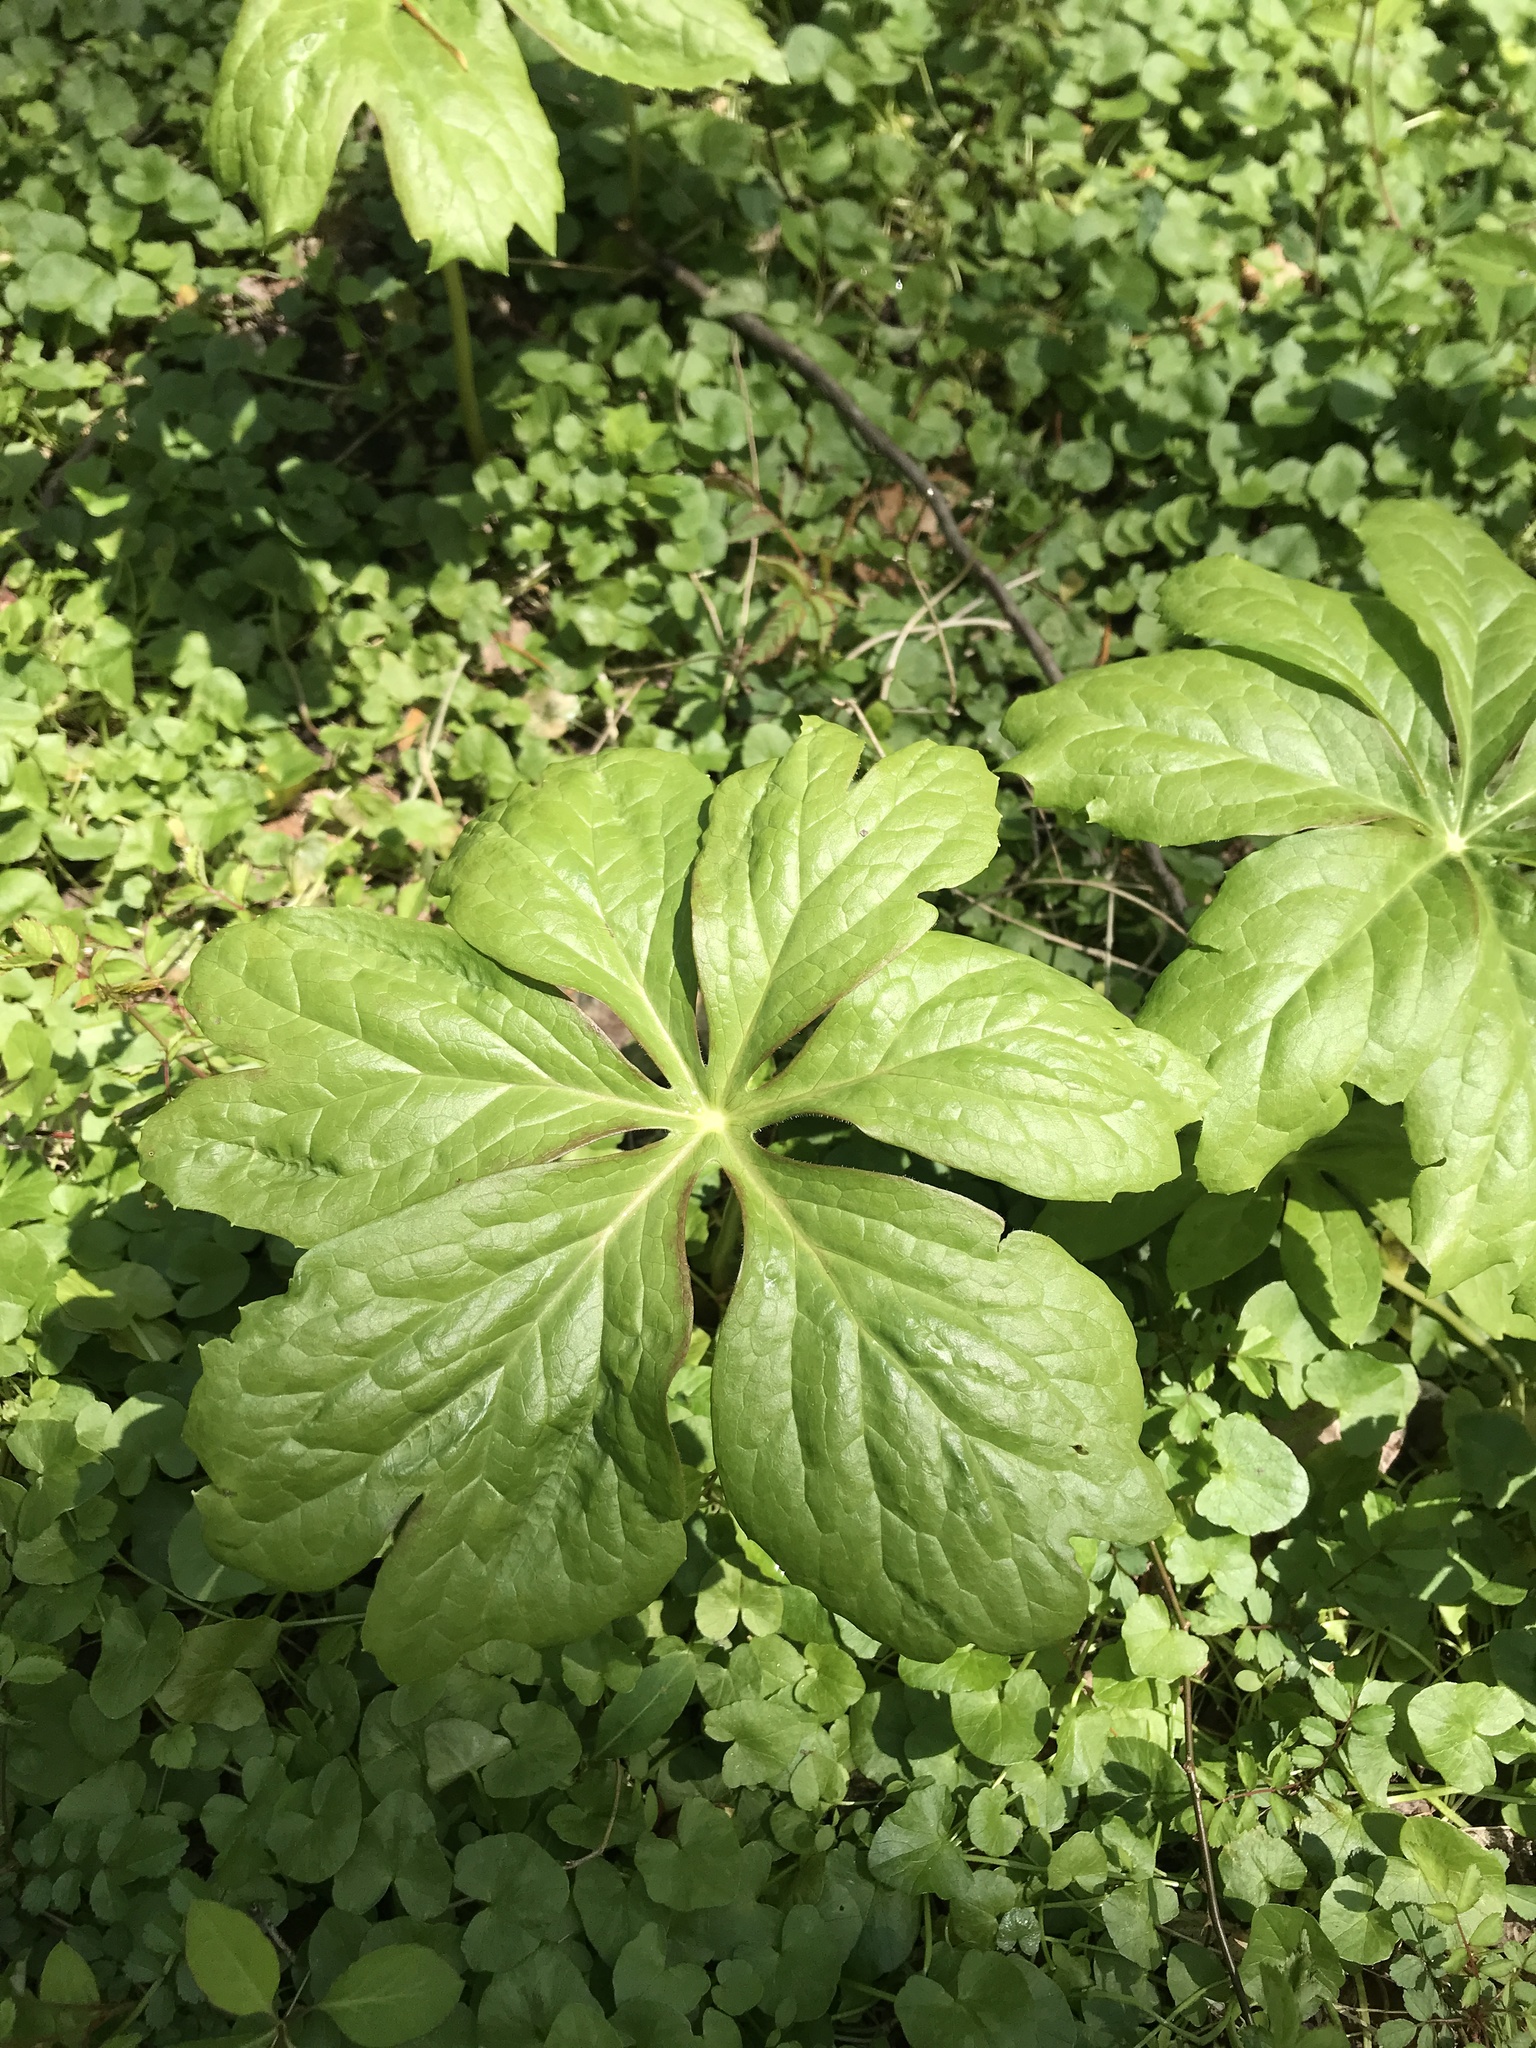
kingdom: Plantae
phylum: Tracheophyta
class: Magnoliopsida
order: Ranunculales
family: Berberidaceae
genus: Podophyllum
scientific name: Podophyllum peltatum
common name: Wild mandrake
